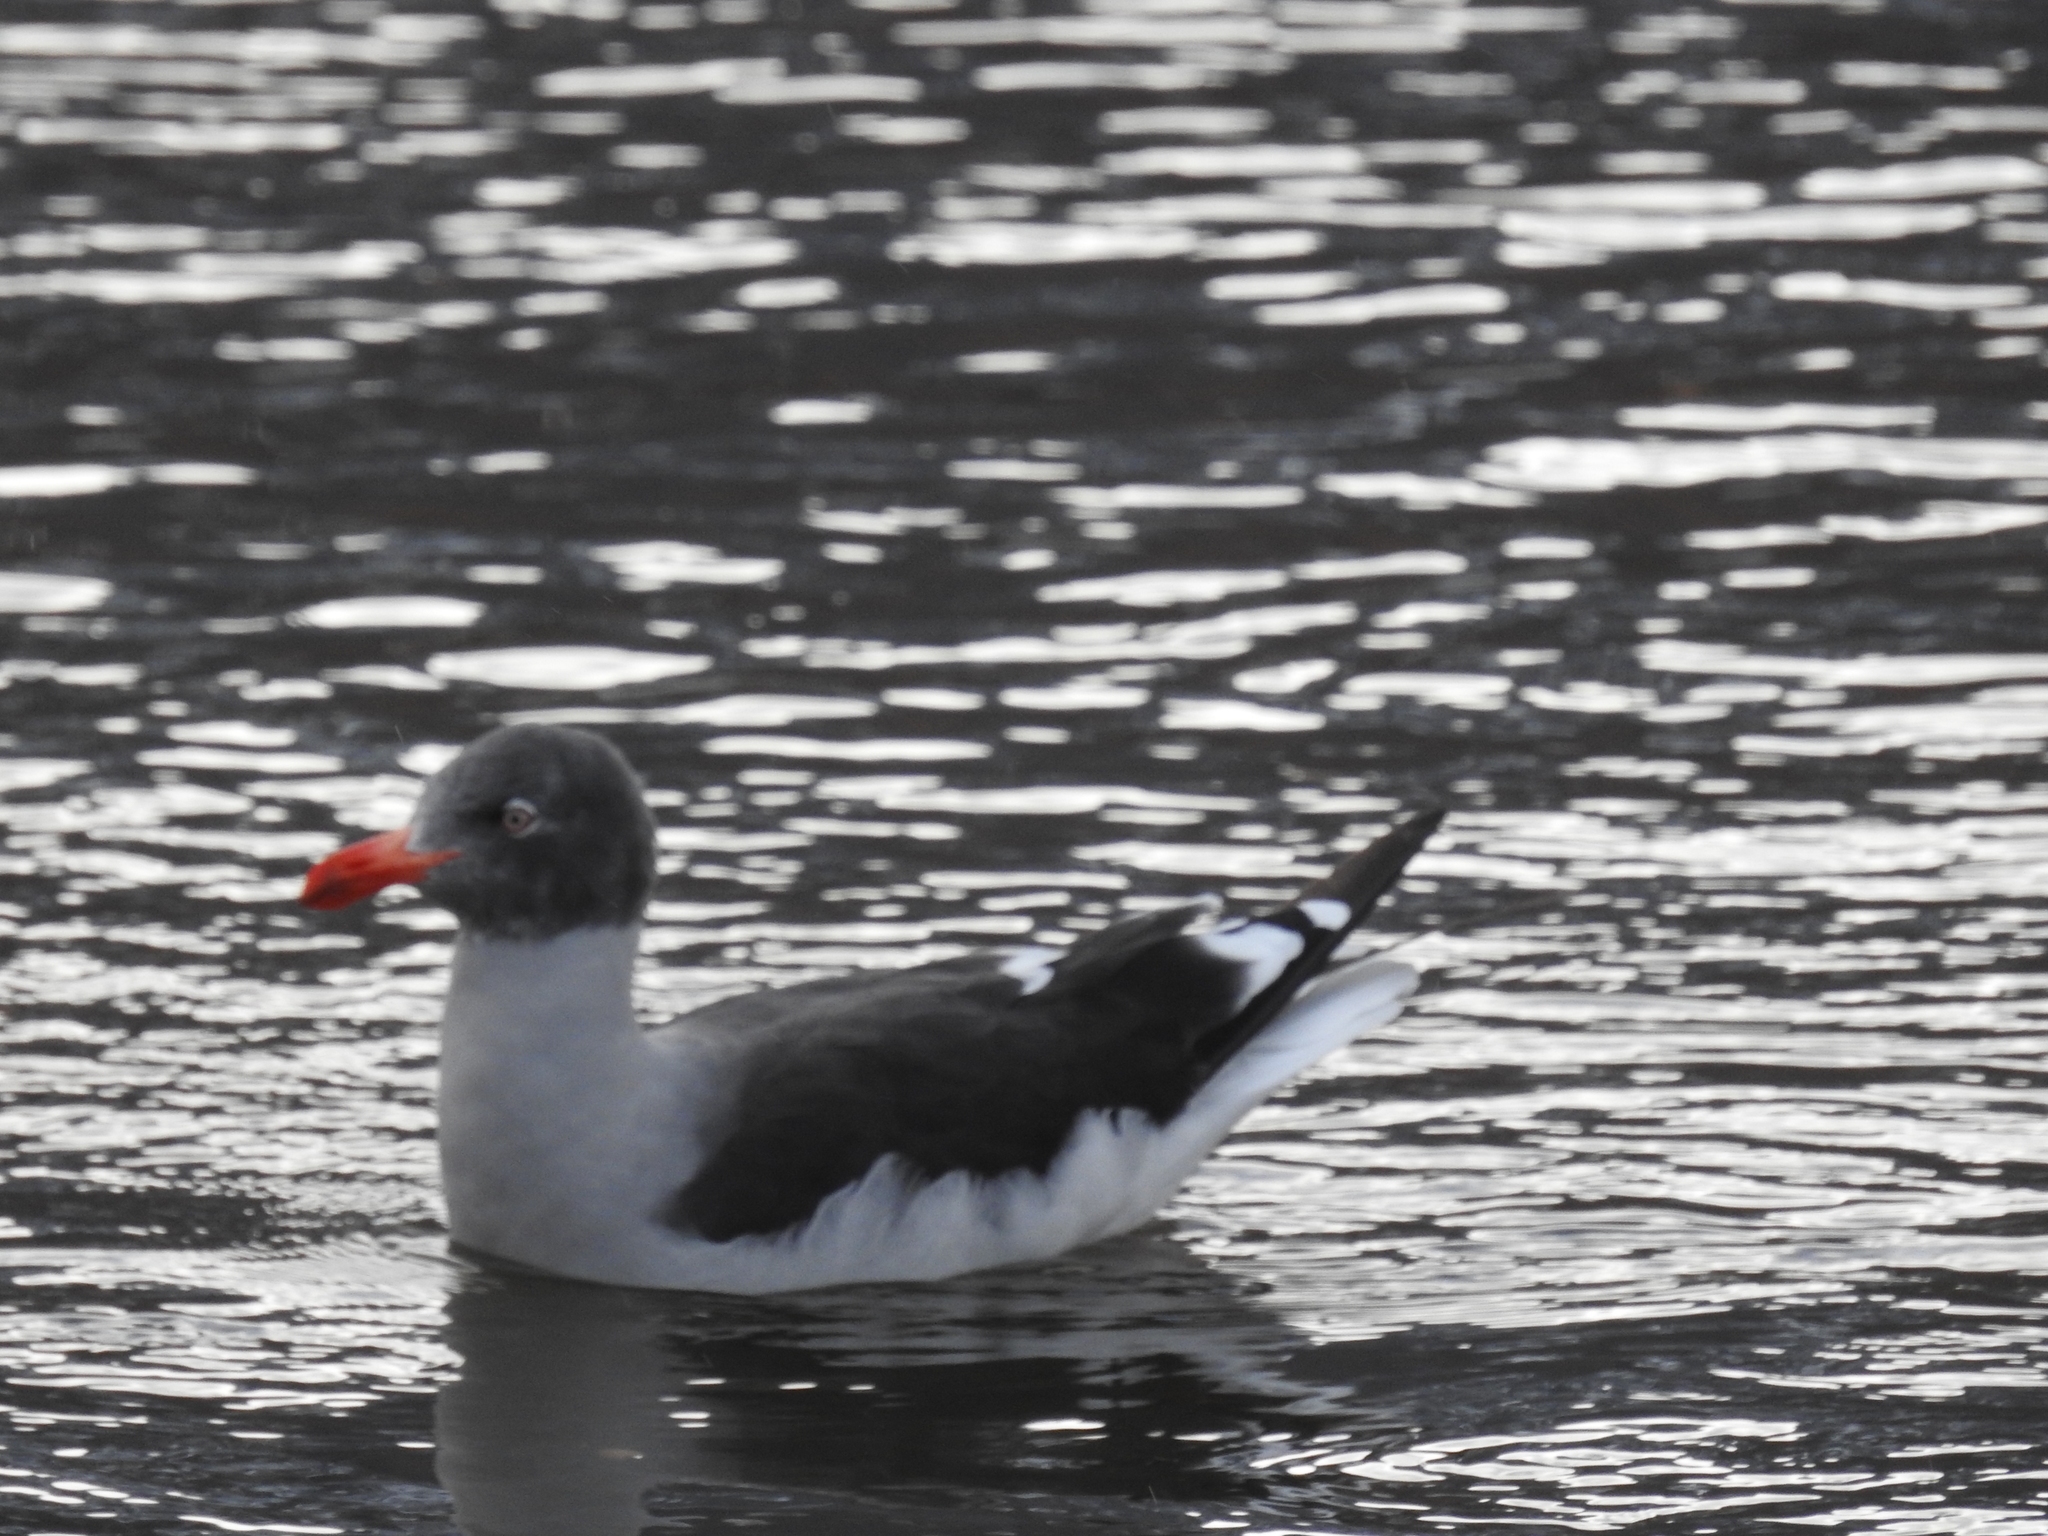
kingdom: Animalia
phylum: Chordata
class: Aves
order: Charadriiformes
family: Laridae
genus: Leucophaeus
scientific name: Leucophaeus scoresbii
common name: Dolphin gull
